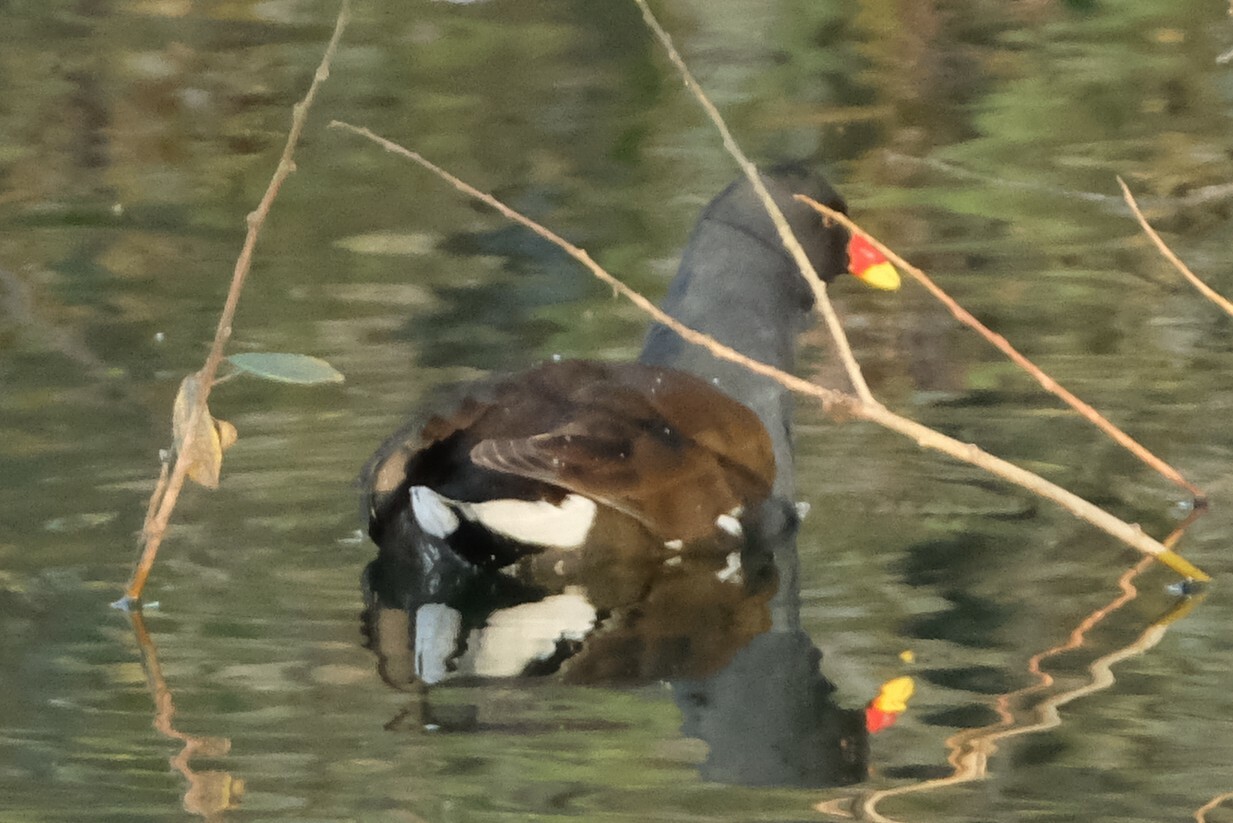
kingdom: Animalia
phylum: Chordata
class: Aves
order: Gruiformes
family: Rallidae
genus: Gallinula
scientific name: Gallinula chloropus
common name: Common moorhen
